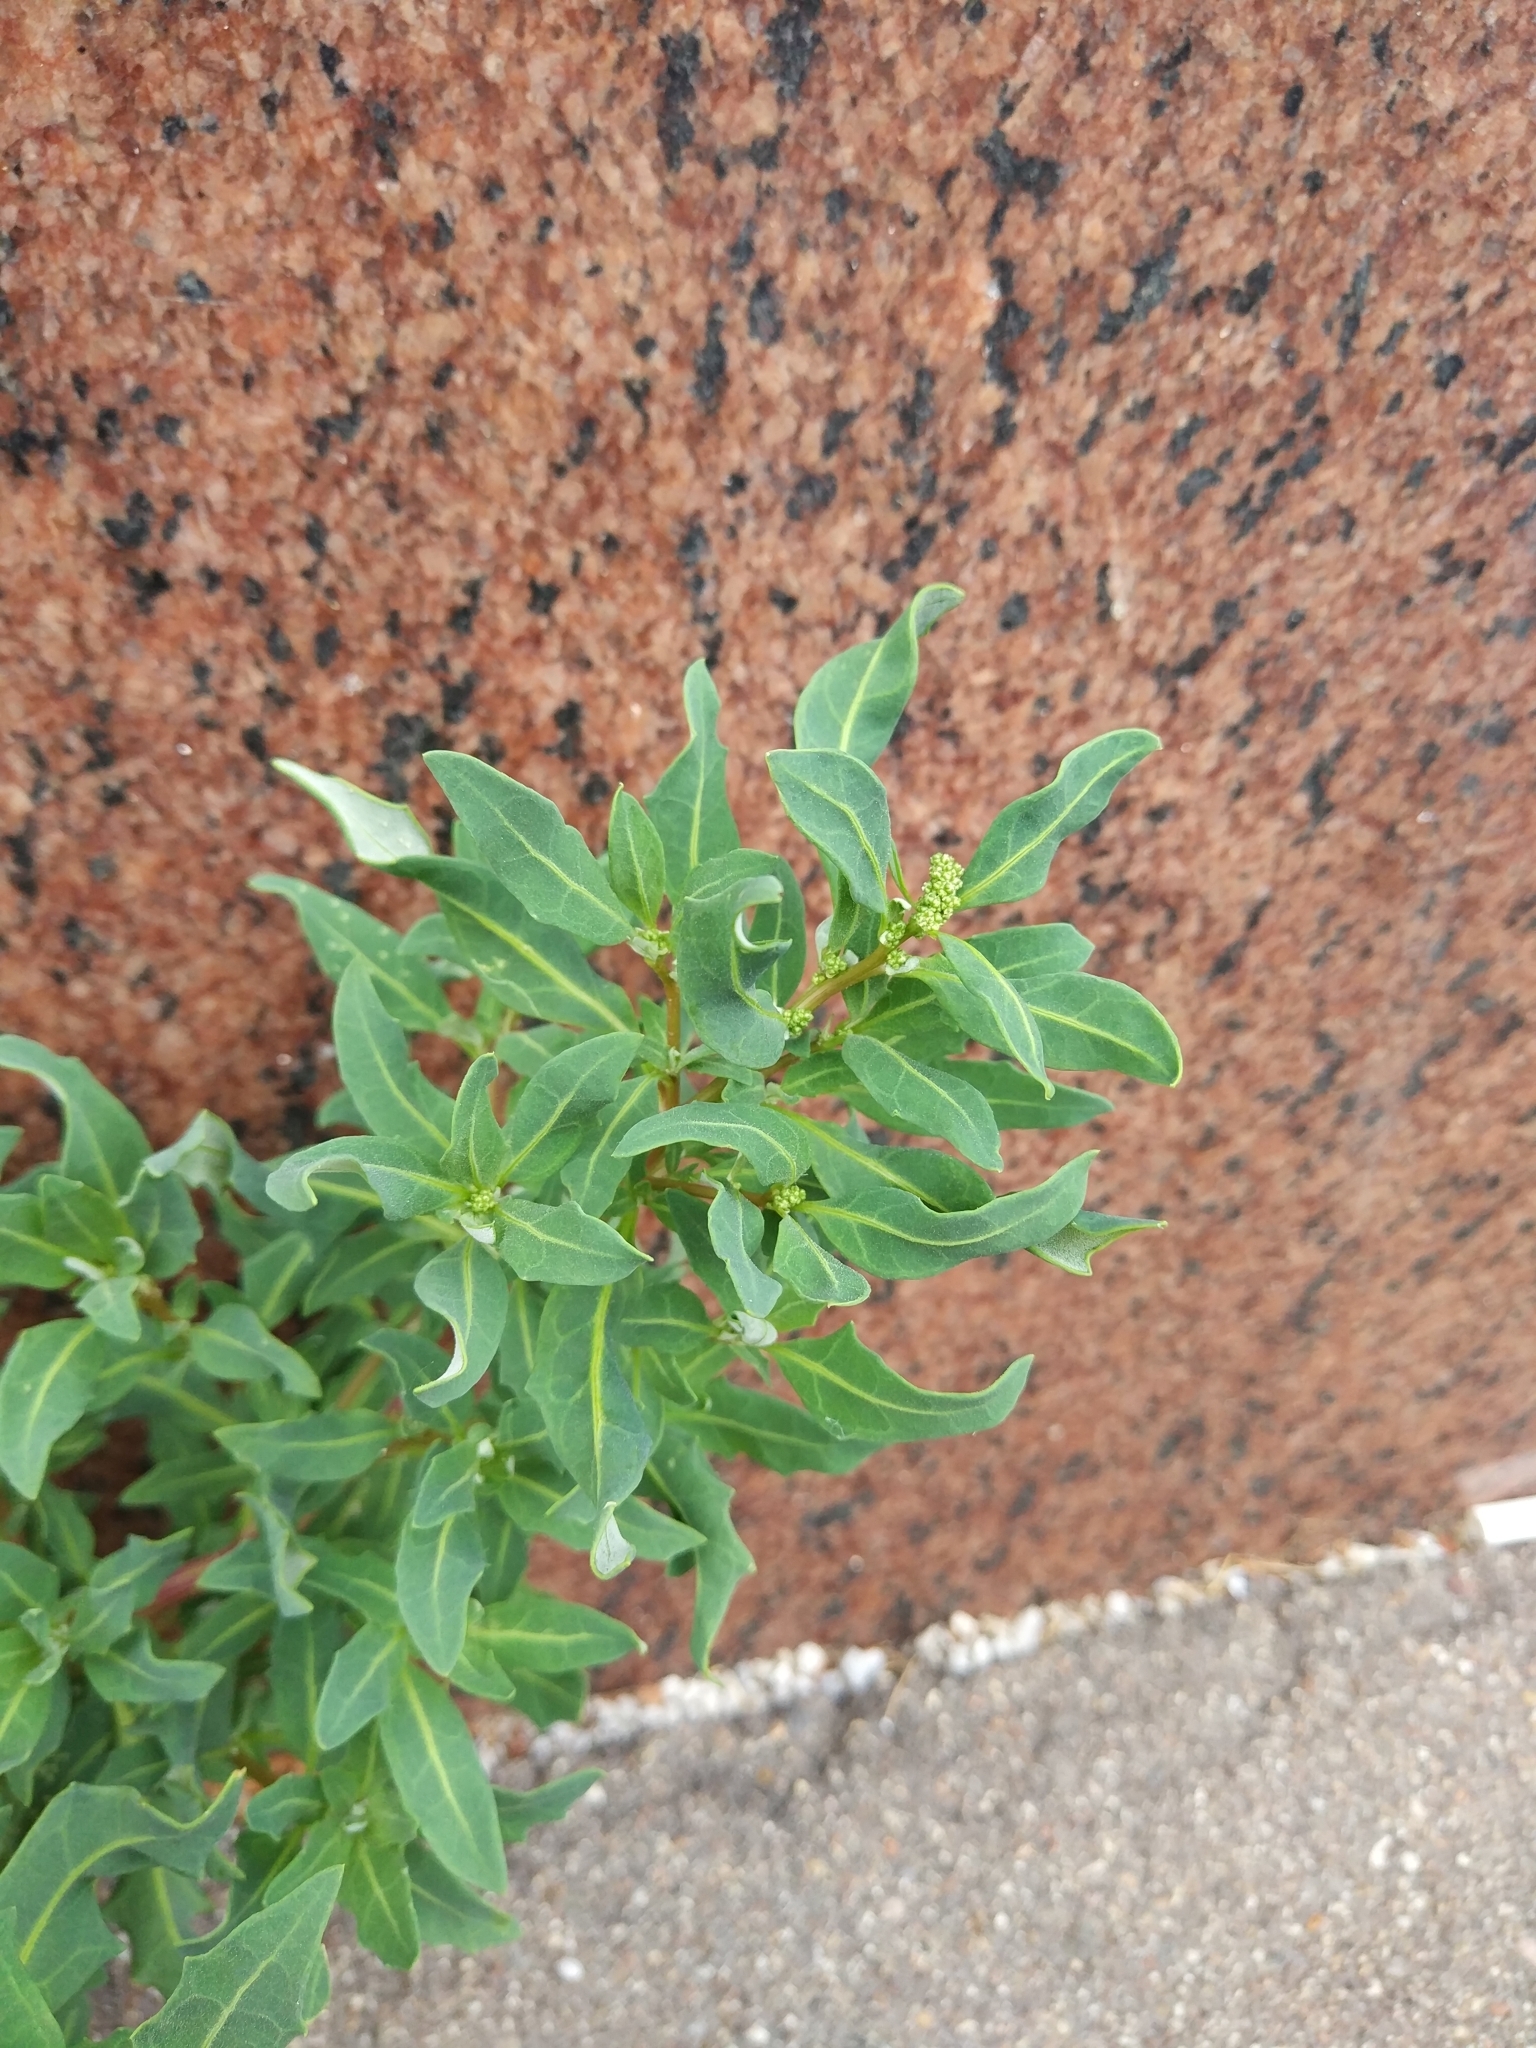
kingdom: Plantae
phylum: Tracheophyta
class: Magnoliopsida
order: Caryophyllales
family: Amaranthaceae
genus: Oxybasis
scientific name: Oxybasis glauca
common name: Glaucous goosefoot
